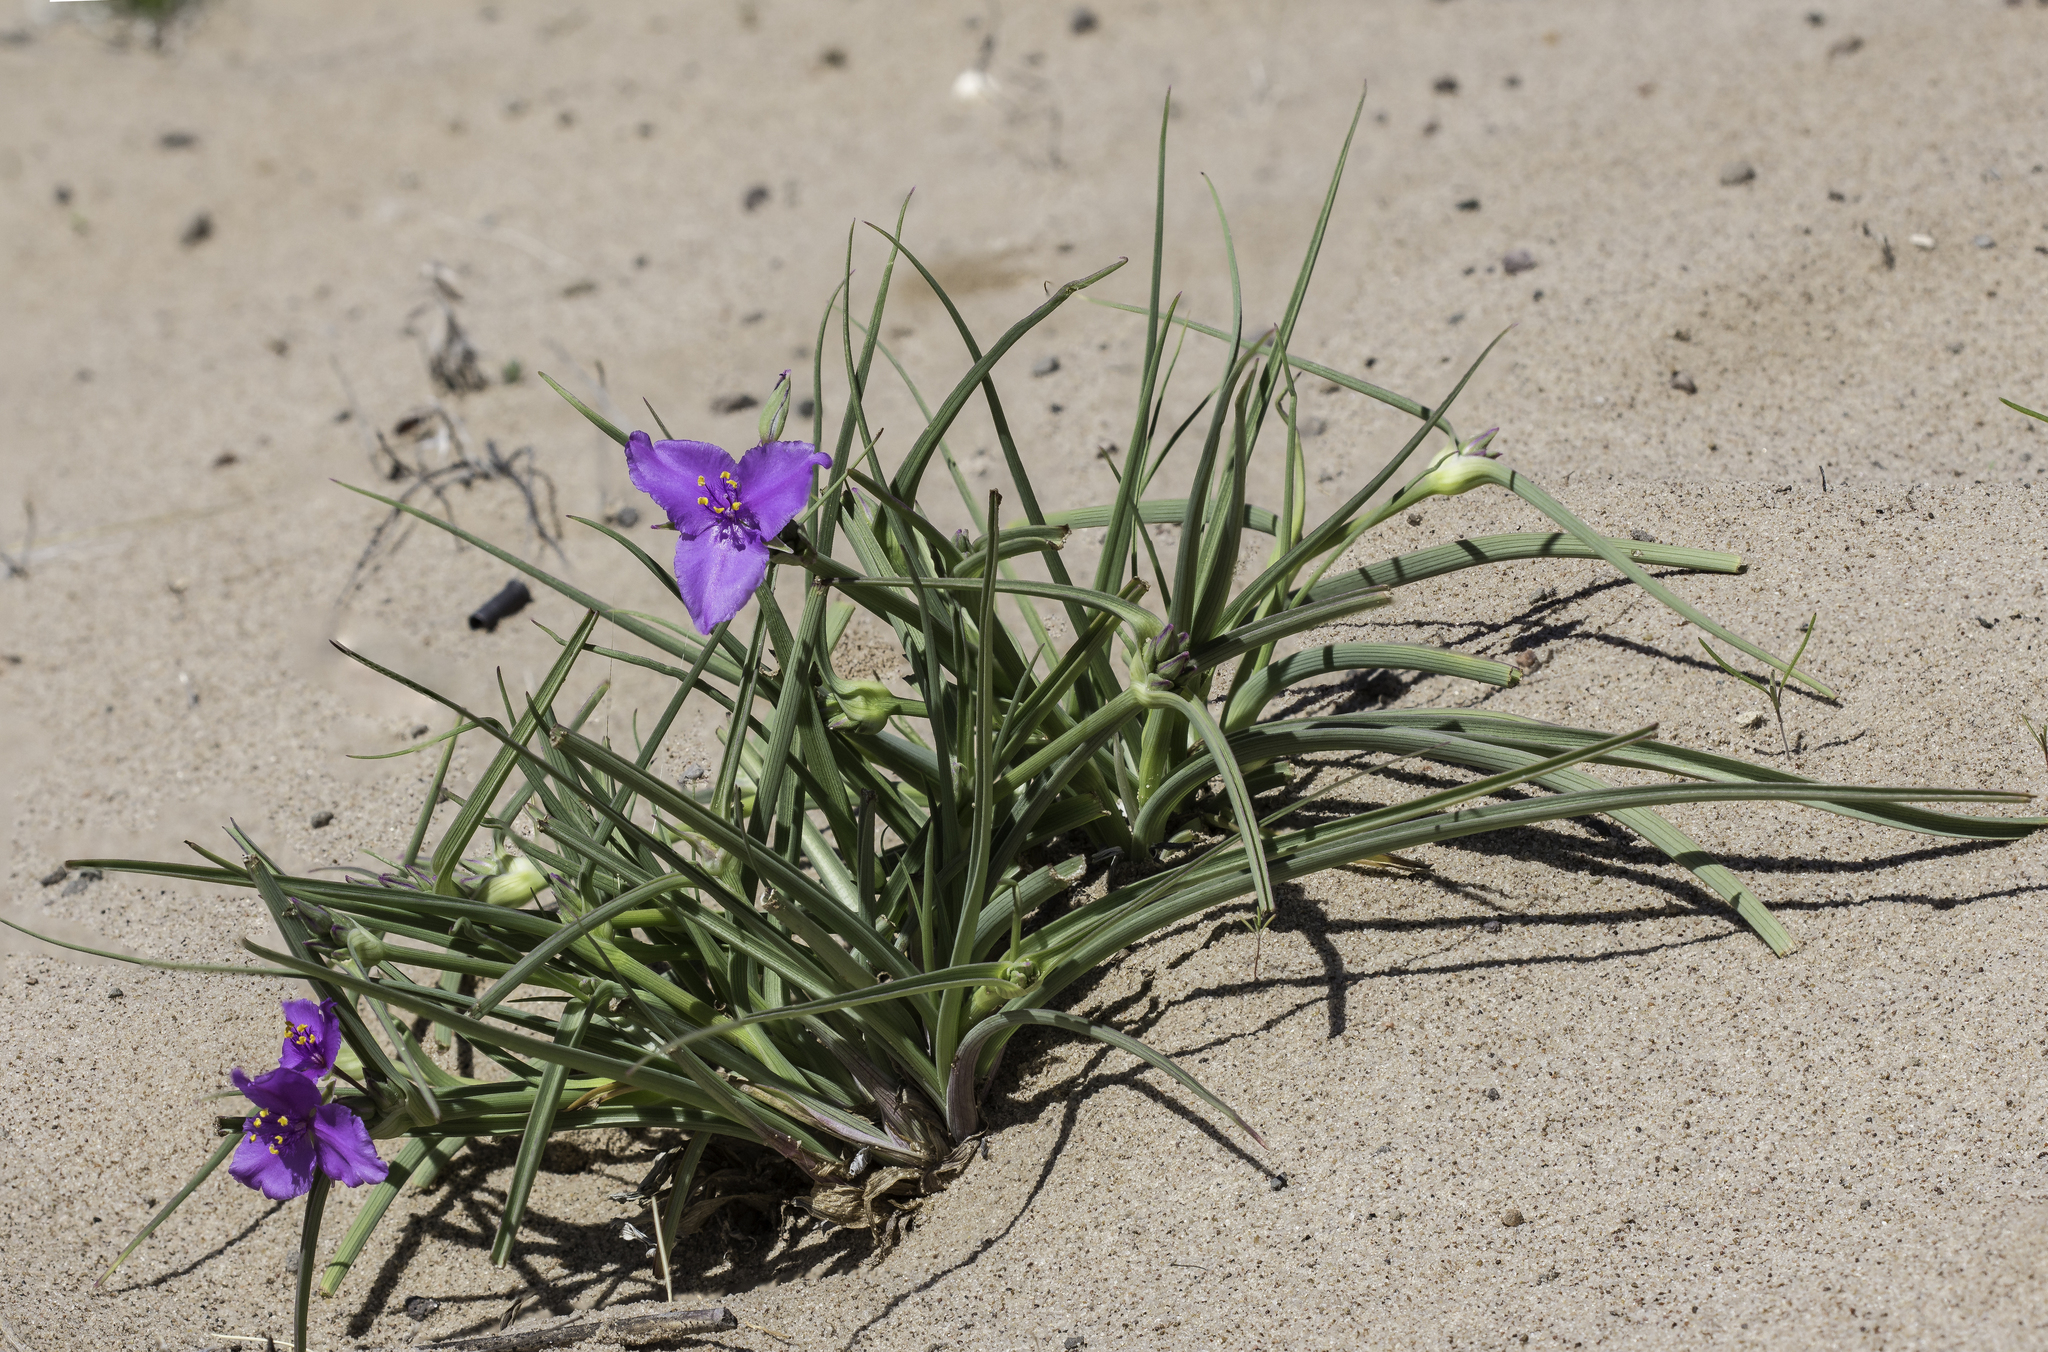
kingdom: Plantae
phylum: Tracheophyta
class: Liliopsida
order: Commelinales
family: Commelinaceae
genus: Tradescantia
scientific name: Tradescantia occidentalis
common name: Prairie spiderwort
